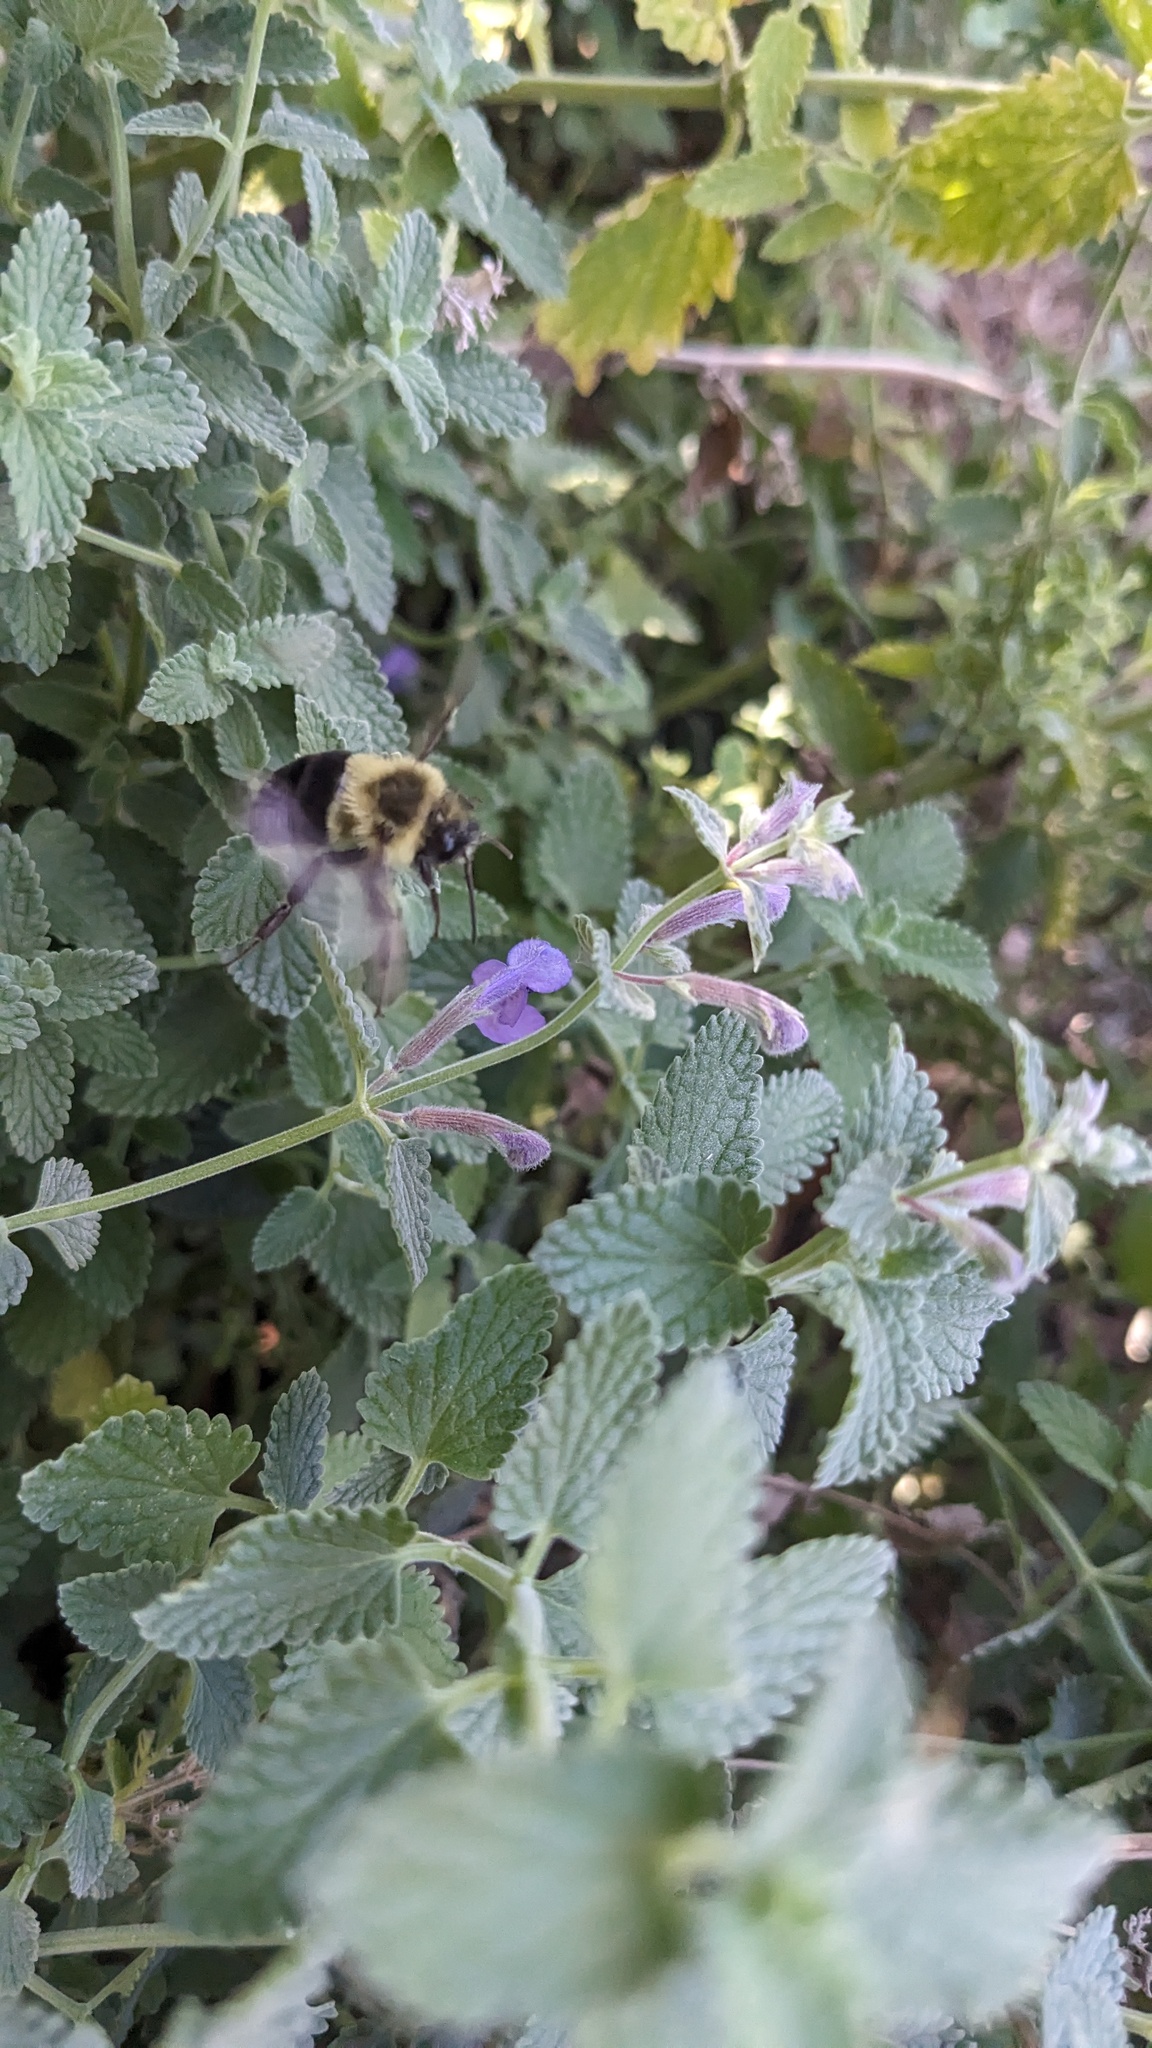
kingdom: Animalia
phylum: Arthropoda
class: Insecta
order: Hymenoptera
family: Apidae
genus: Bombus
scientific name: Bombus impatiens
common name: Common eastern bumble bee
